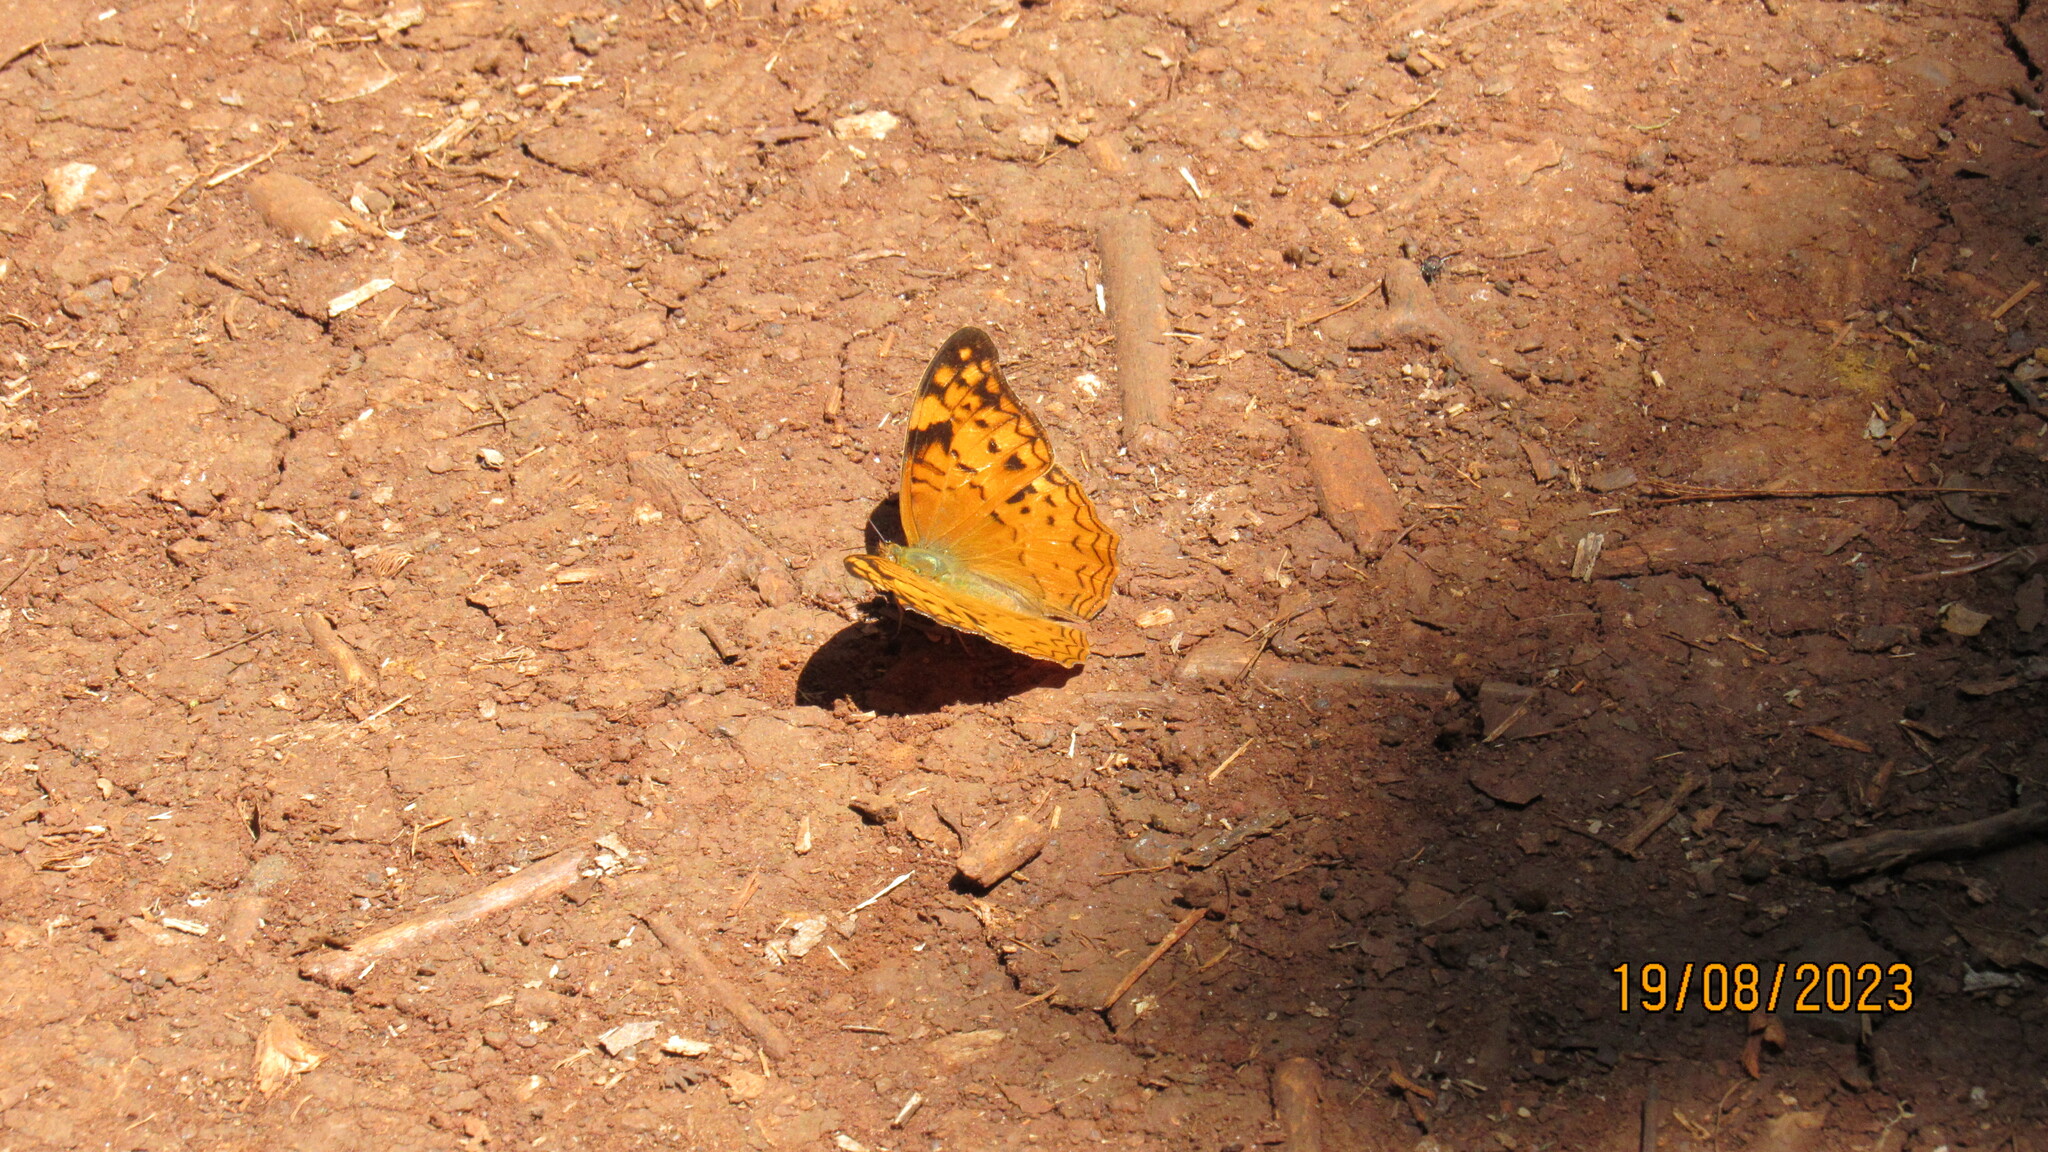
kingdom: Animalia
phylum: Arthropoda
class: Insecta
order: Lepidoptera
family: Nymphalidae
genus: Lachnoptera
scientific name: Lachnoptera ayresii
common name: Blotched leopard
